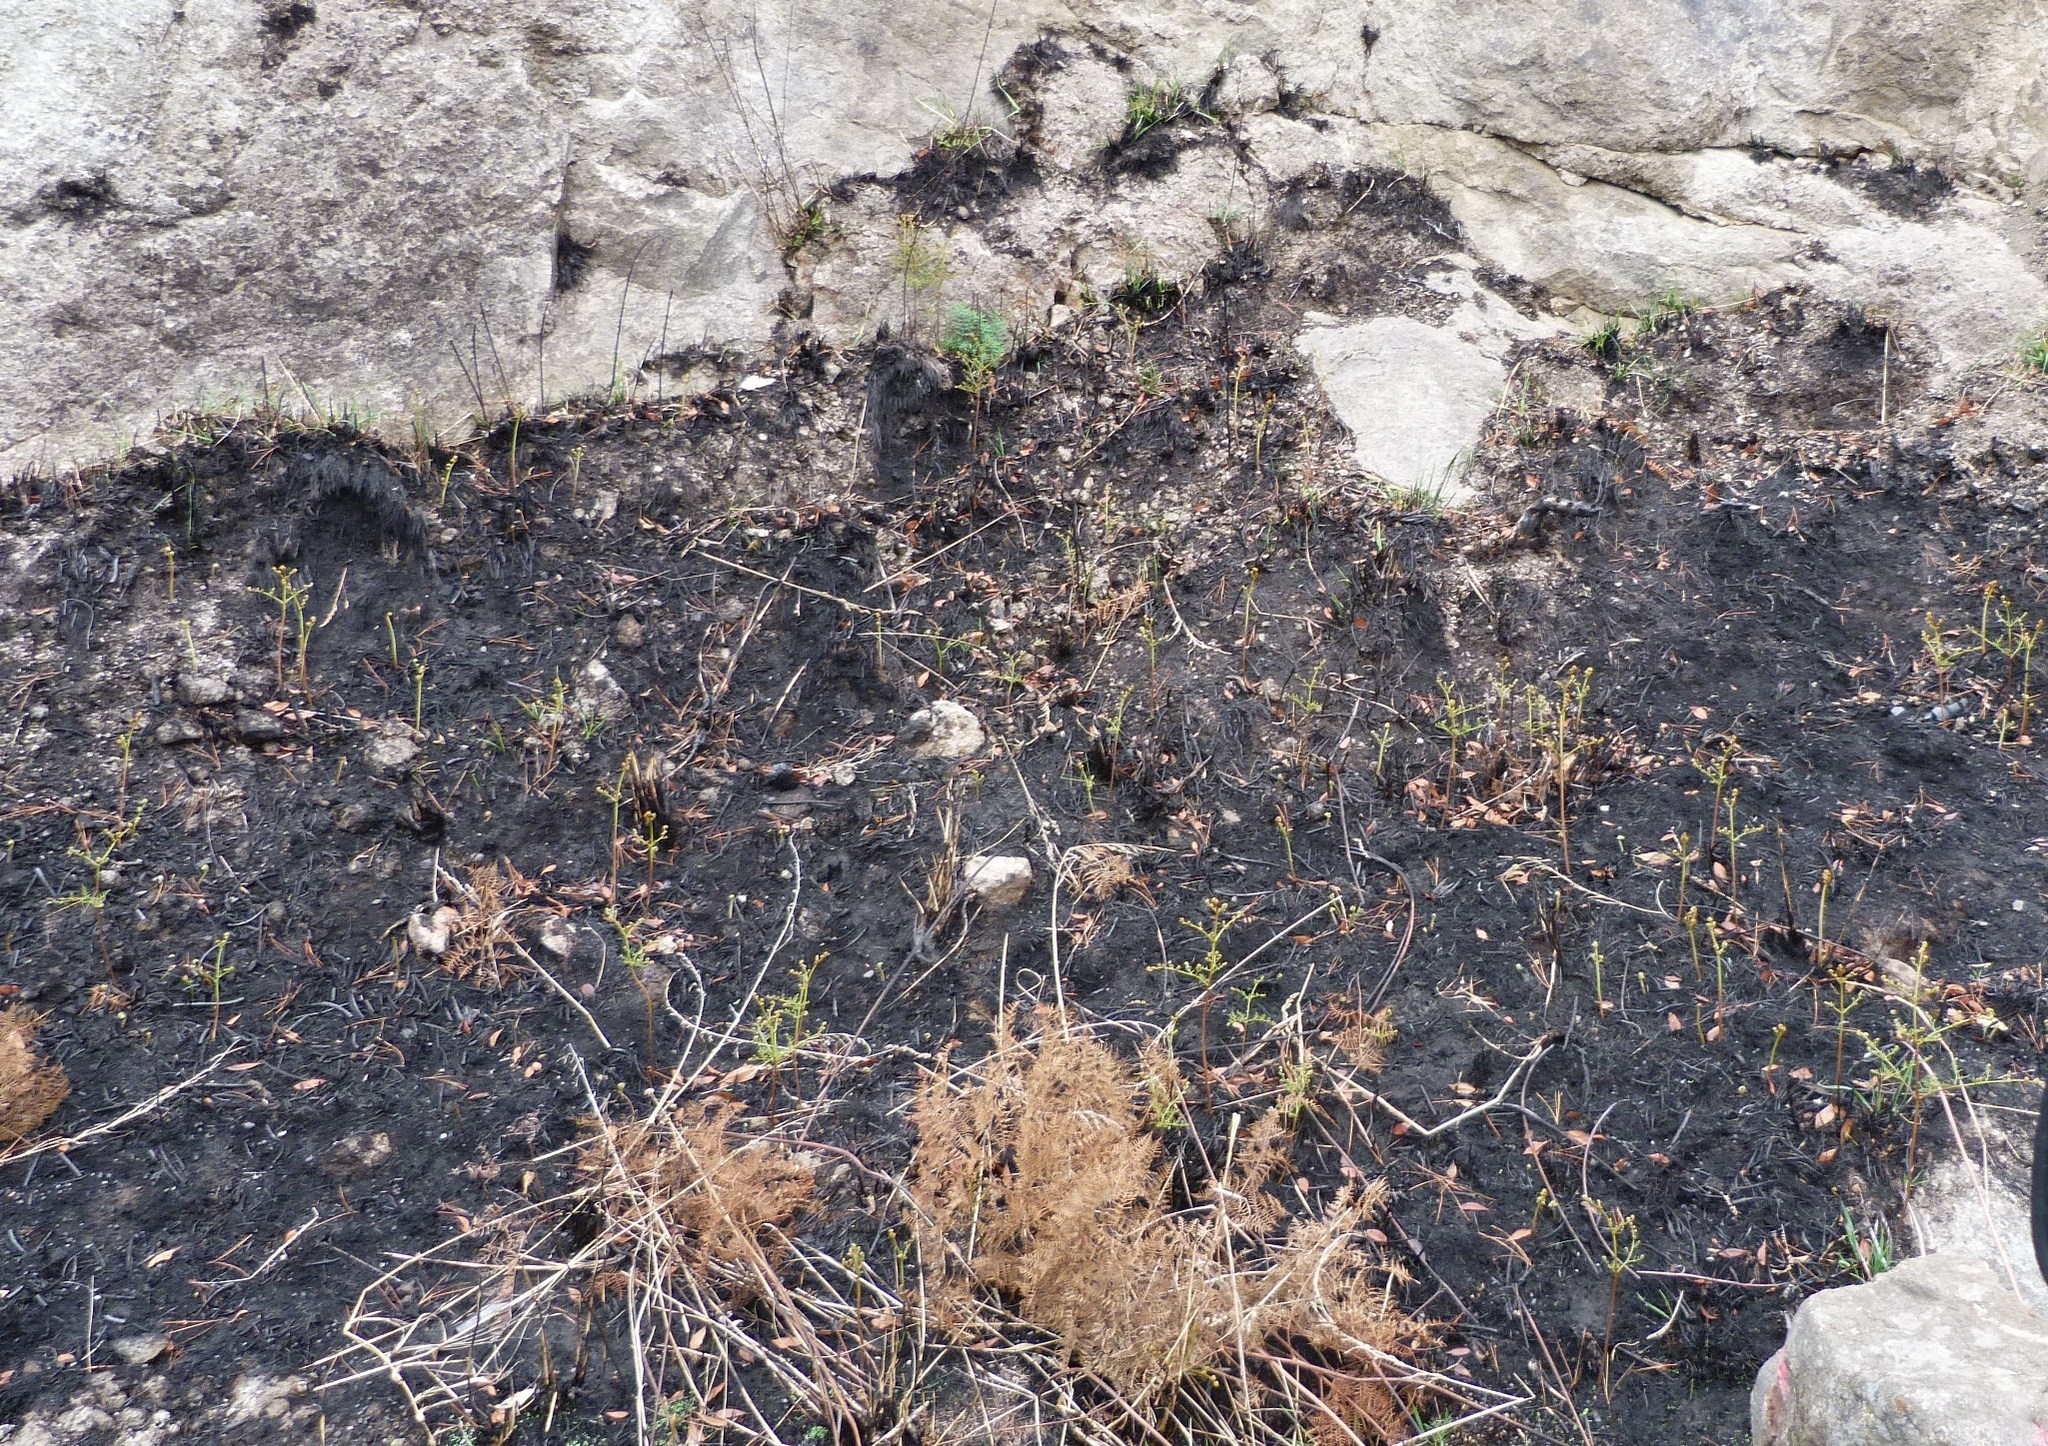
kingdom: Plantae
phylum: Tracheophyta
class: Polypodiopsida
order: Polypodiales
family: Dennstaedtiaceae
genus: Pteridium
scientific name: Pteridium esculentum
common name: Bracken fern
